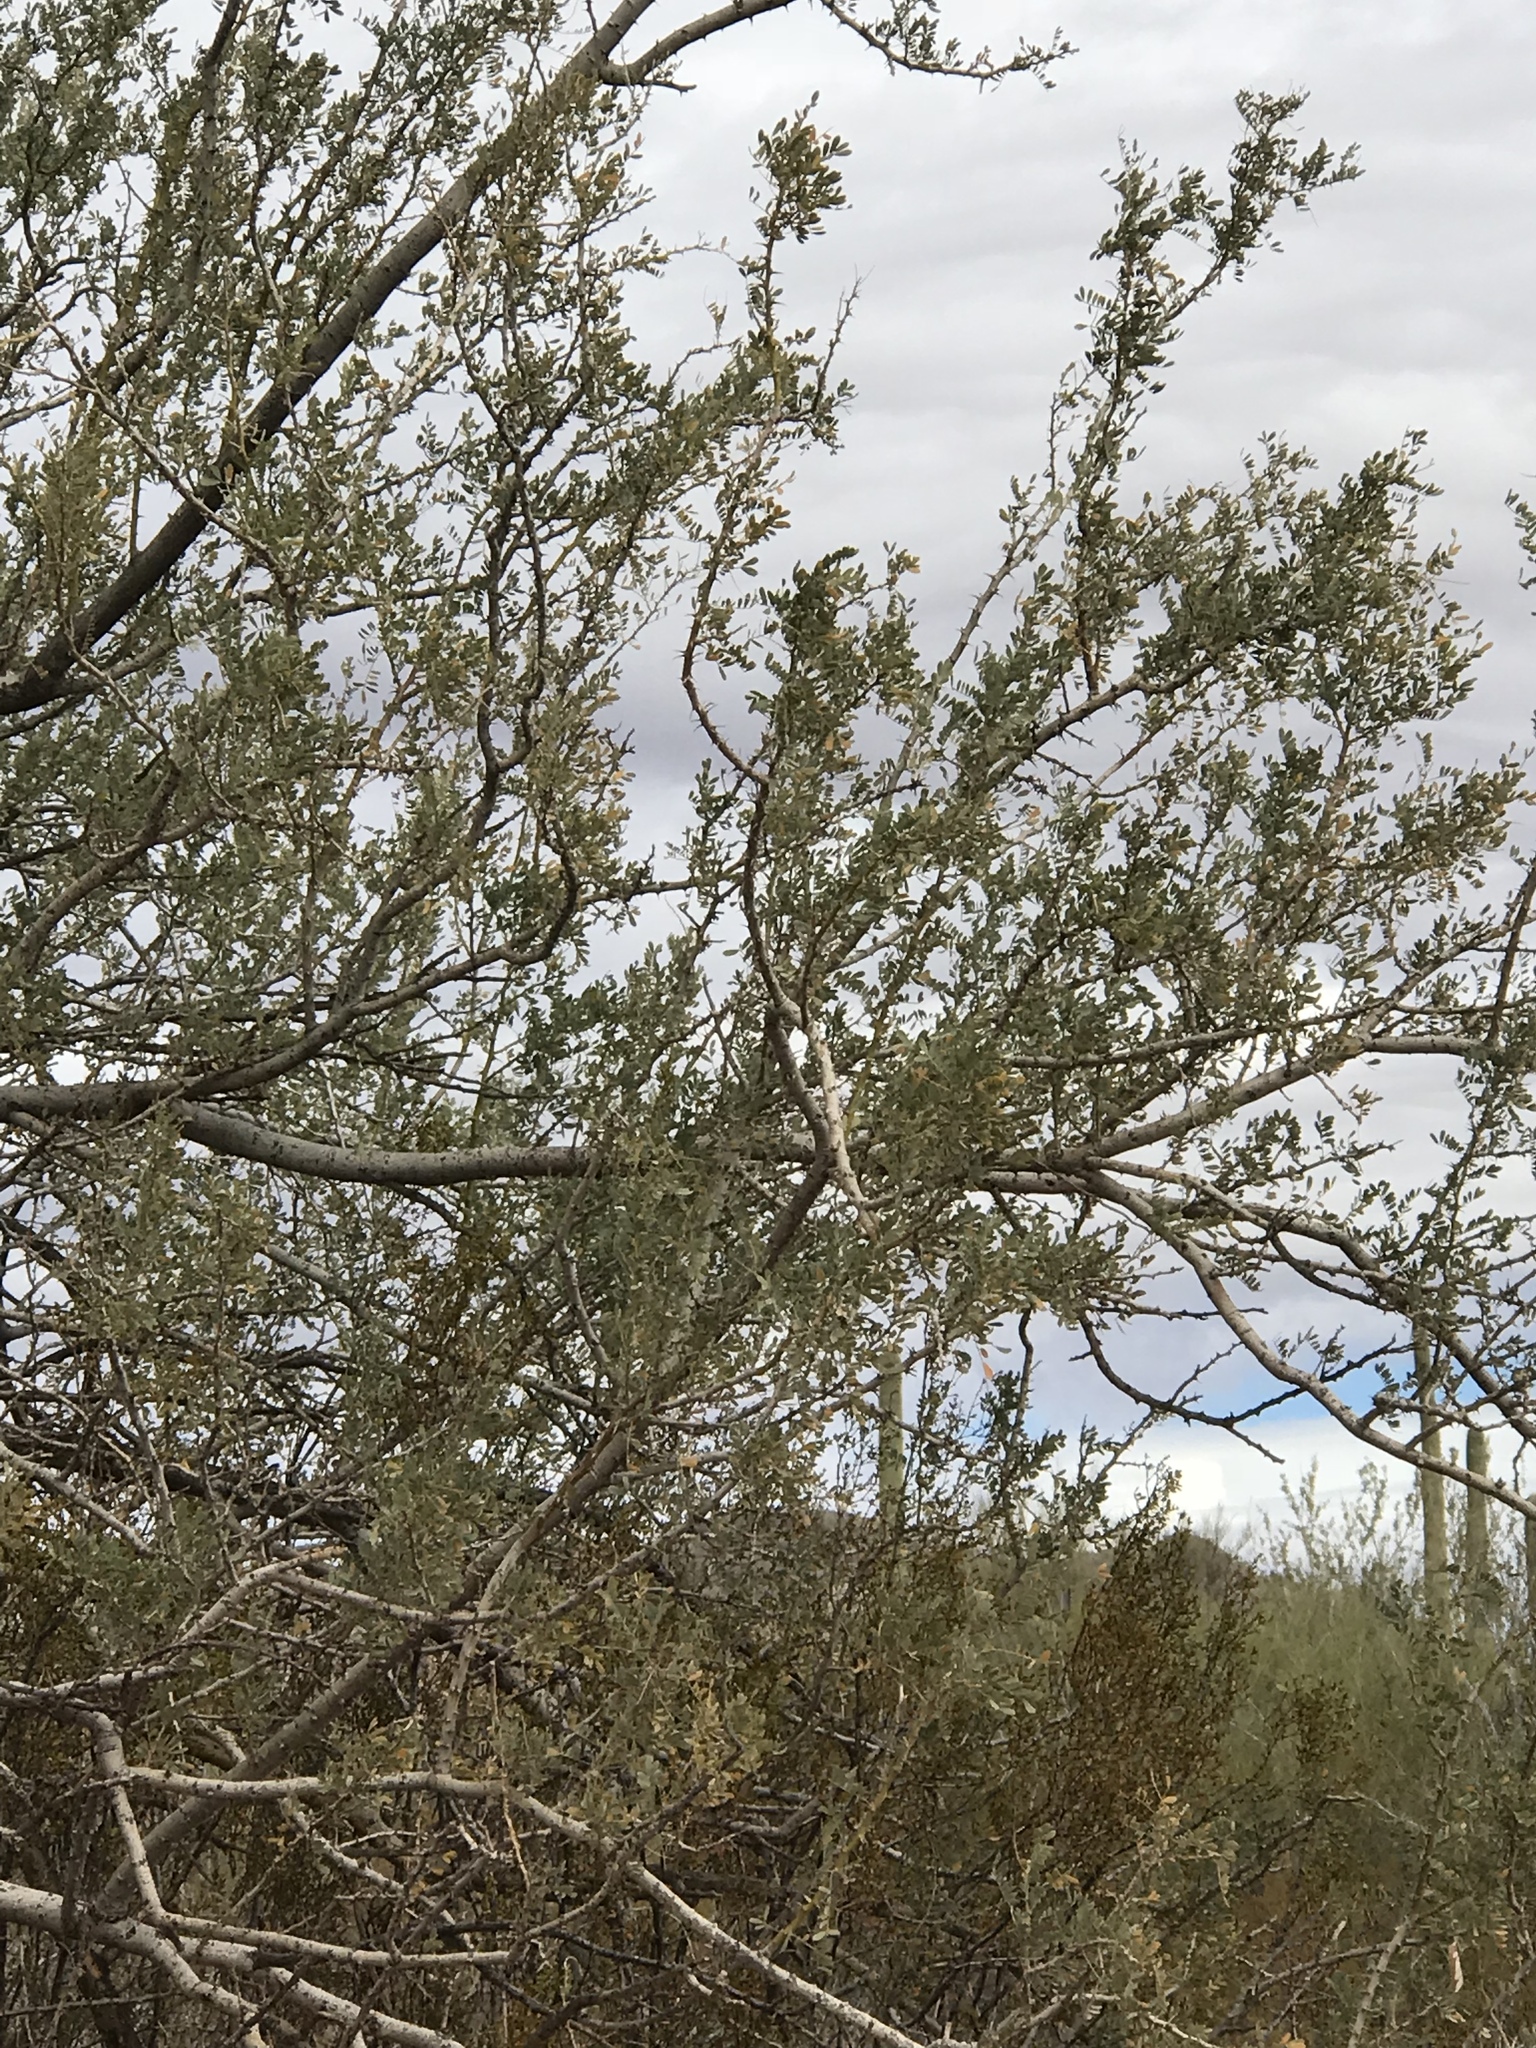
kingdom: Plantae
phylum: Tracheophyta
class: Magnoliopsida
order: Fabales
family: Fabaceae
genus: Olneya
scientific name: Olneya tesota
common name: Desert ironwood
